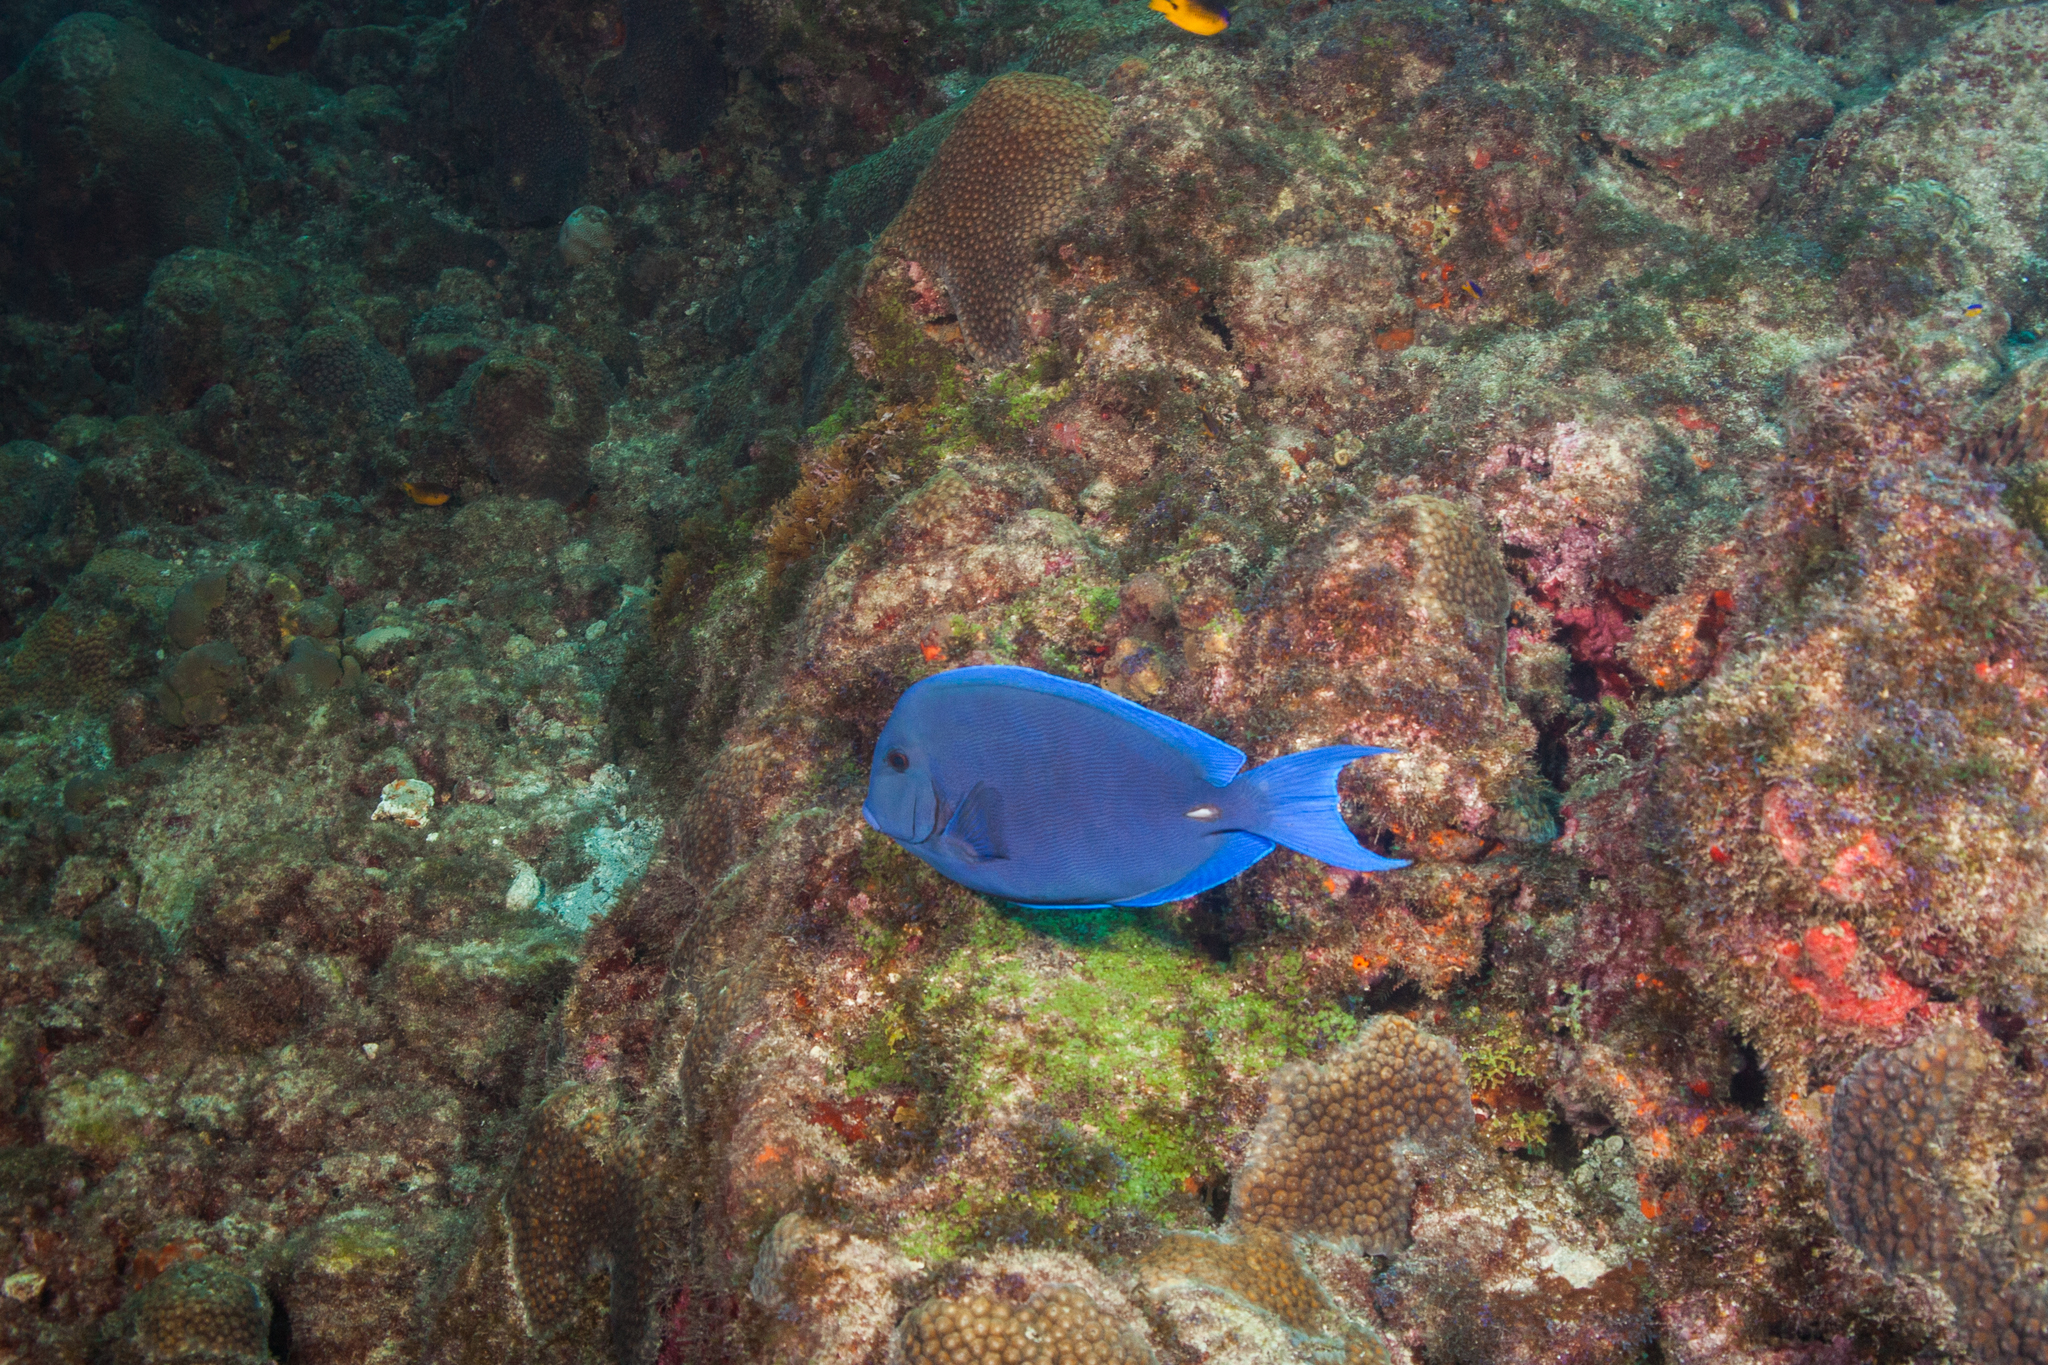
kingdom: Animalia
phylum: Chordata
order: Perciformes
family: Acanthuridae
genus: Acanthurus
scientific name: Acanthurus coeruleus
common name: Blue tang
